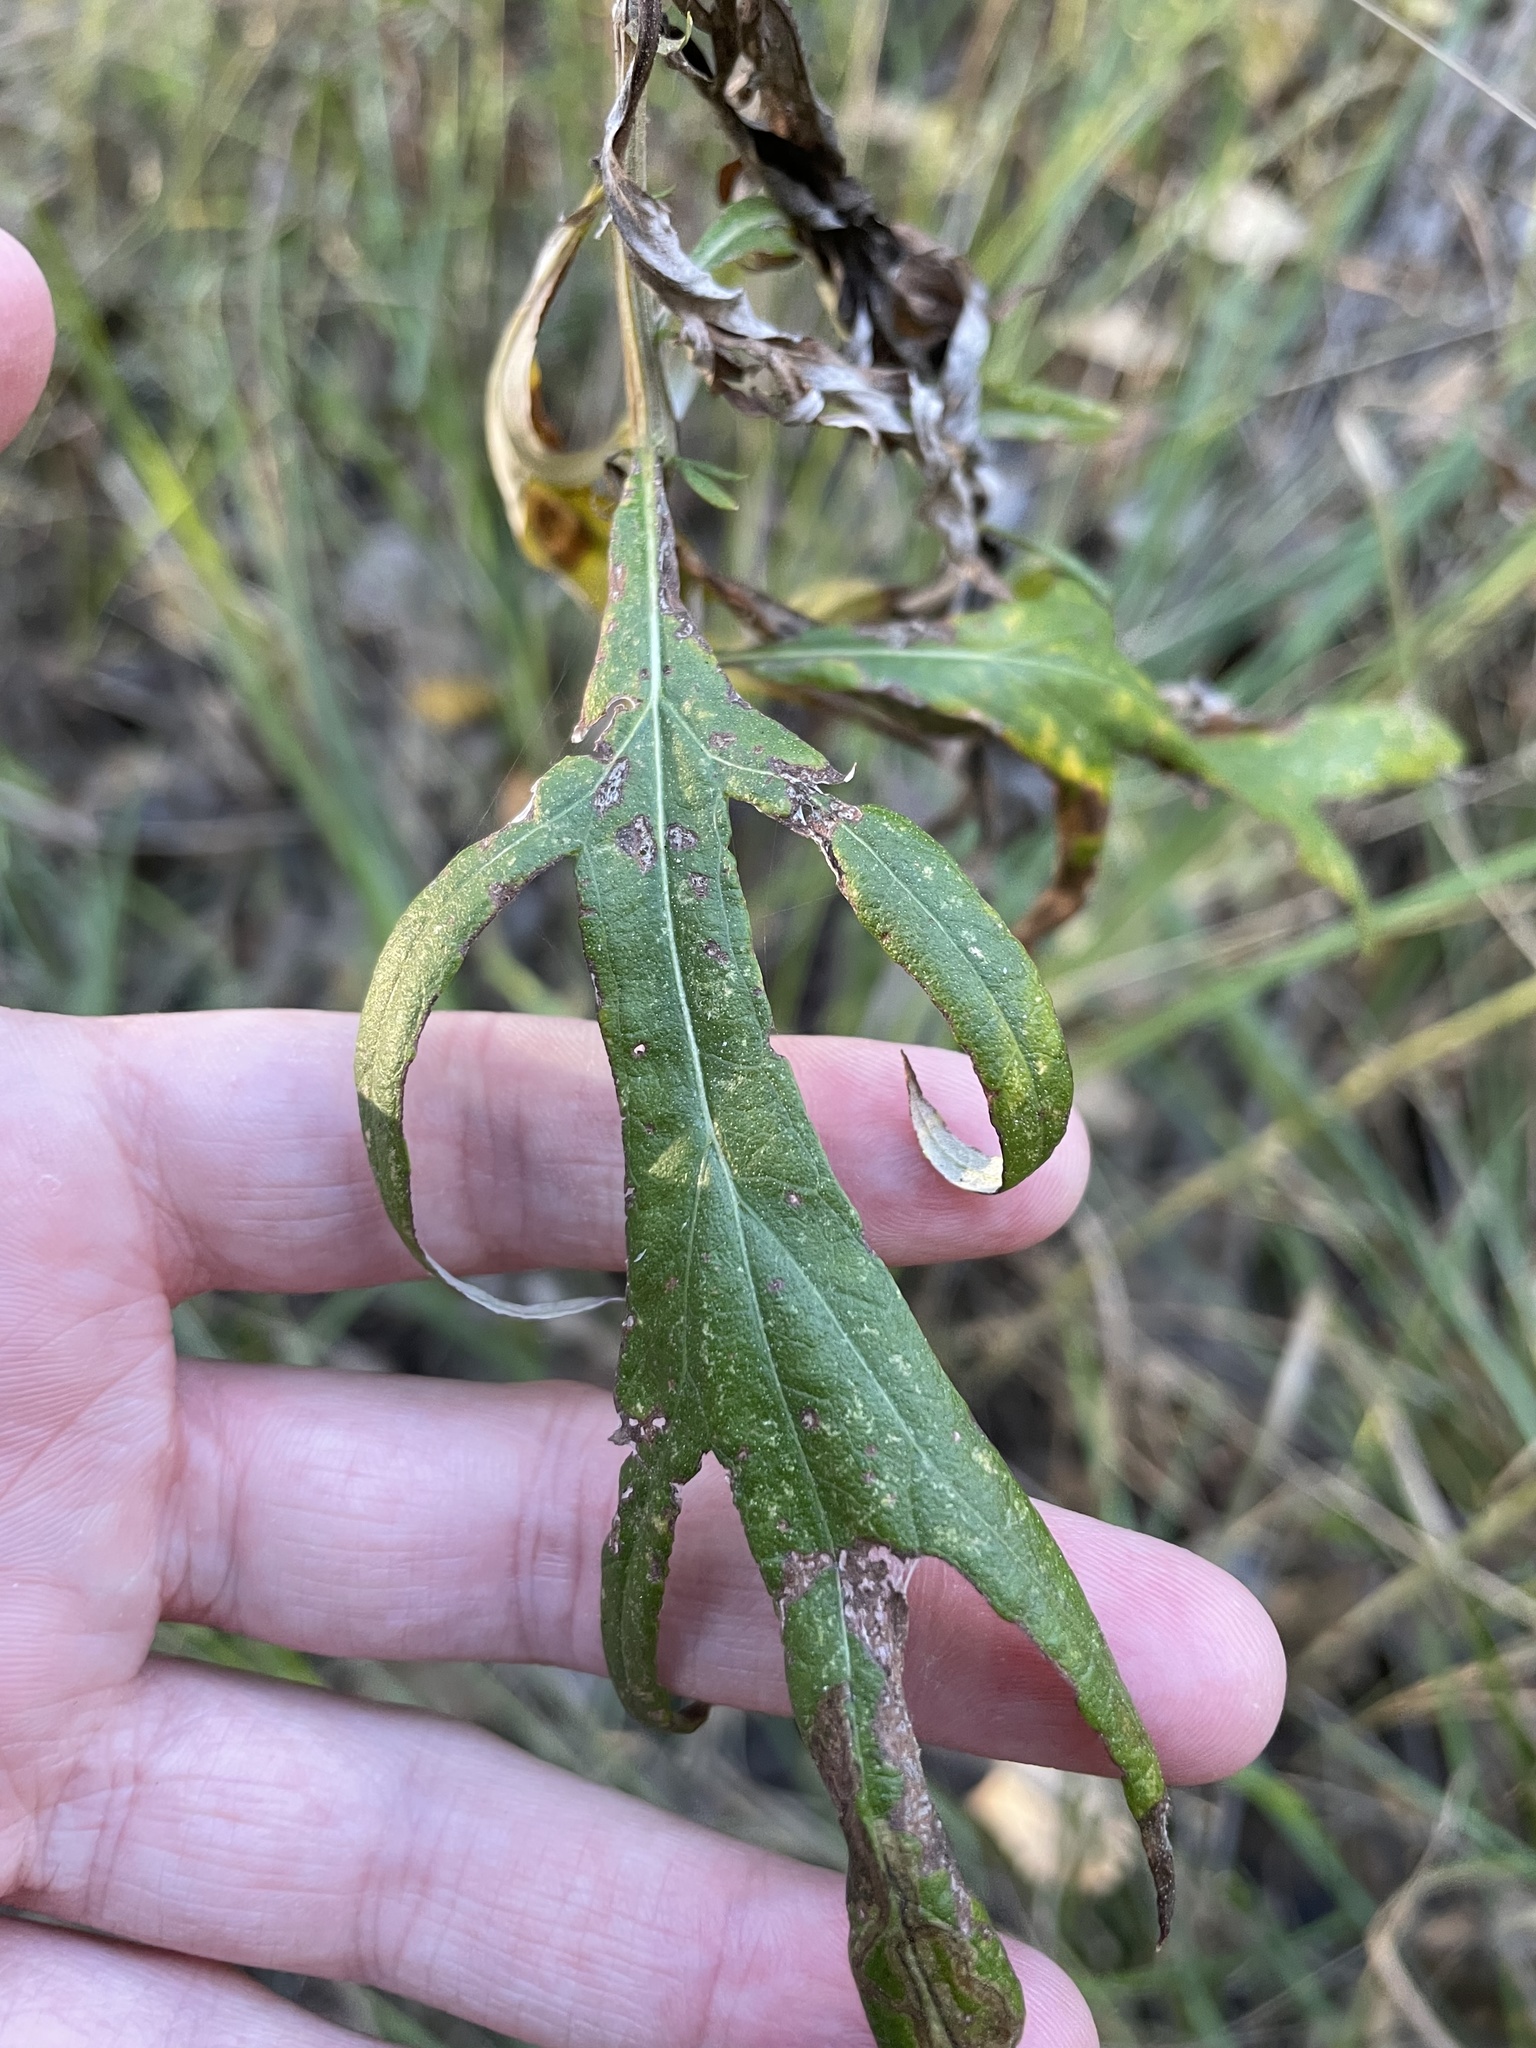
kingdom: Plantae
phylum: Tracheophyta
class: Magnoliopsida
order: Asterales
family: Asteraceae
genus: Artemisia
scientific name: Artemisia douglasiana
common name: Northwest mugwort
